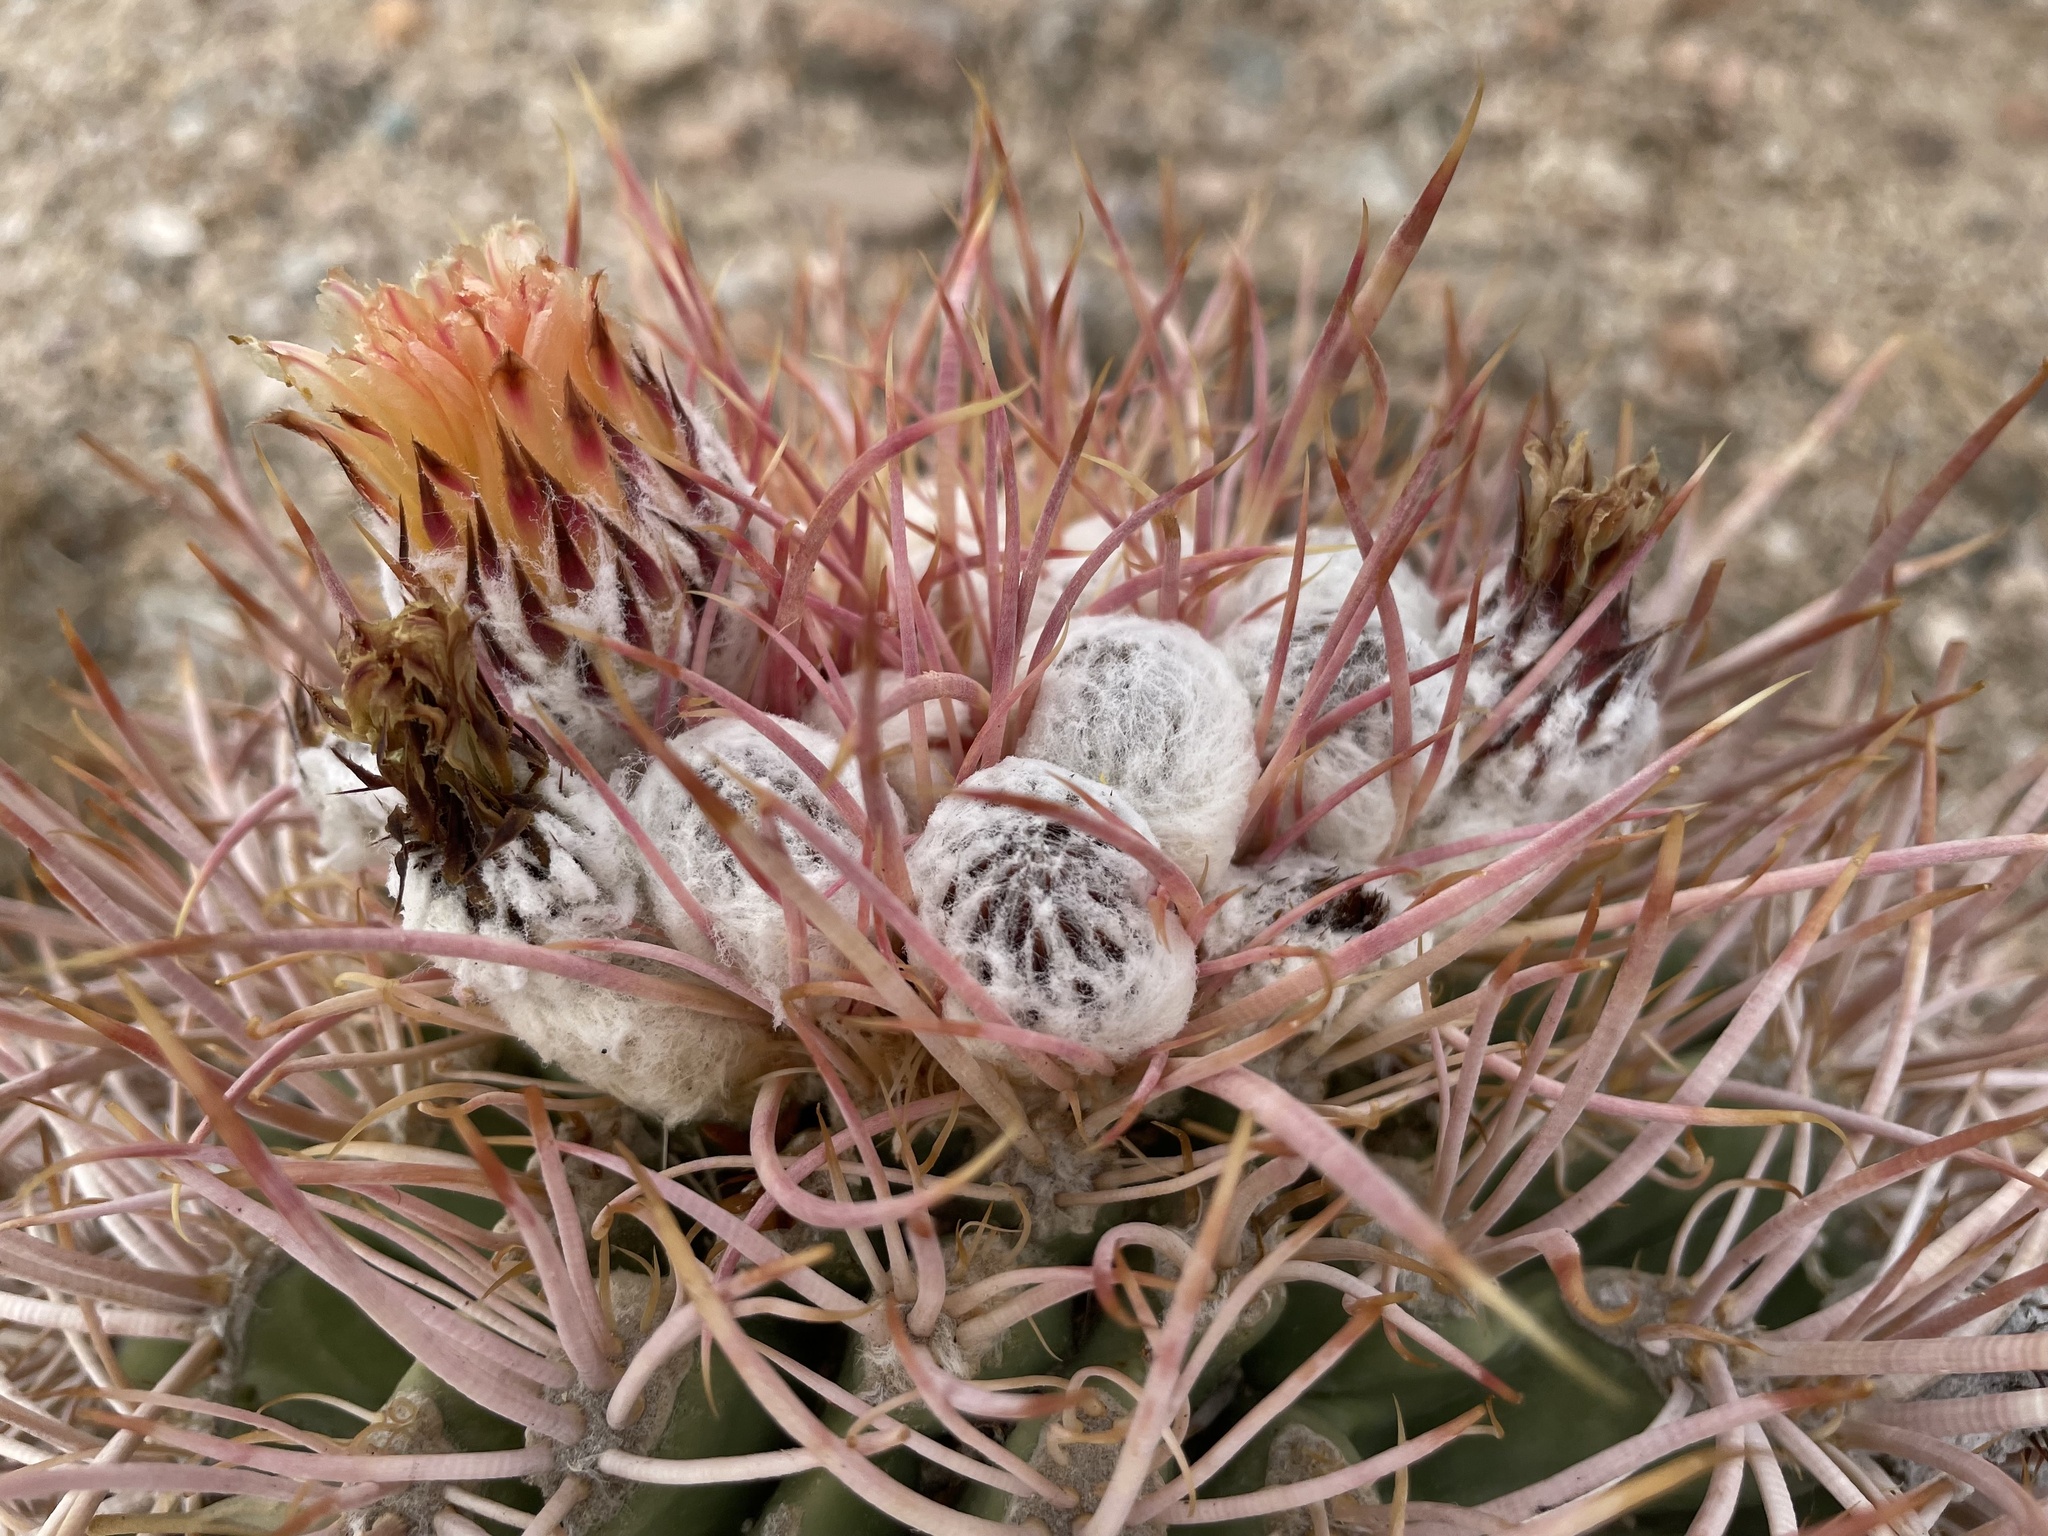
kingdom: Plantae
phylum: Tracheophyta
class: Magnoliopsida
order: Caryophyllales
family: Cactaceae
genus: Echinocactus
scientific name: Echinocactus polycephalus
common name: Cottontop cactus
